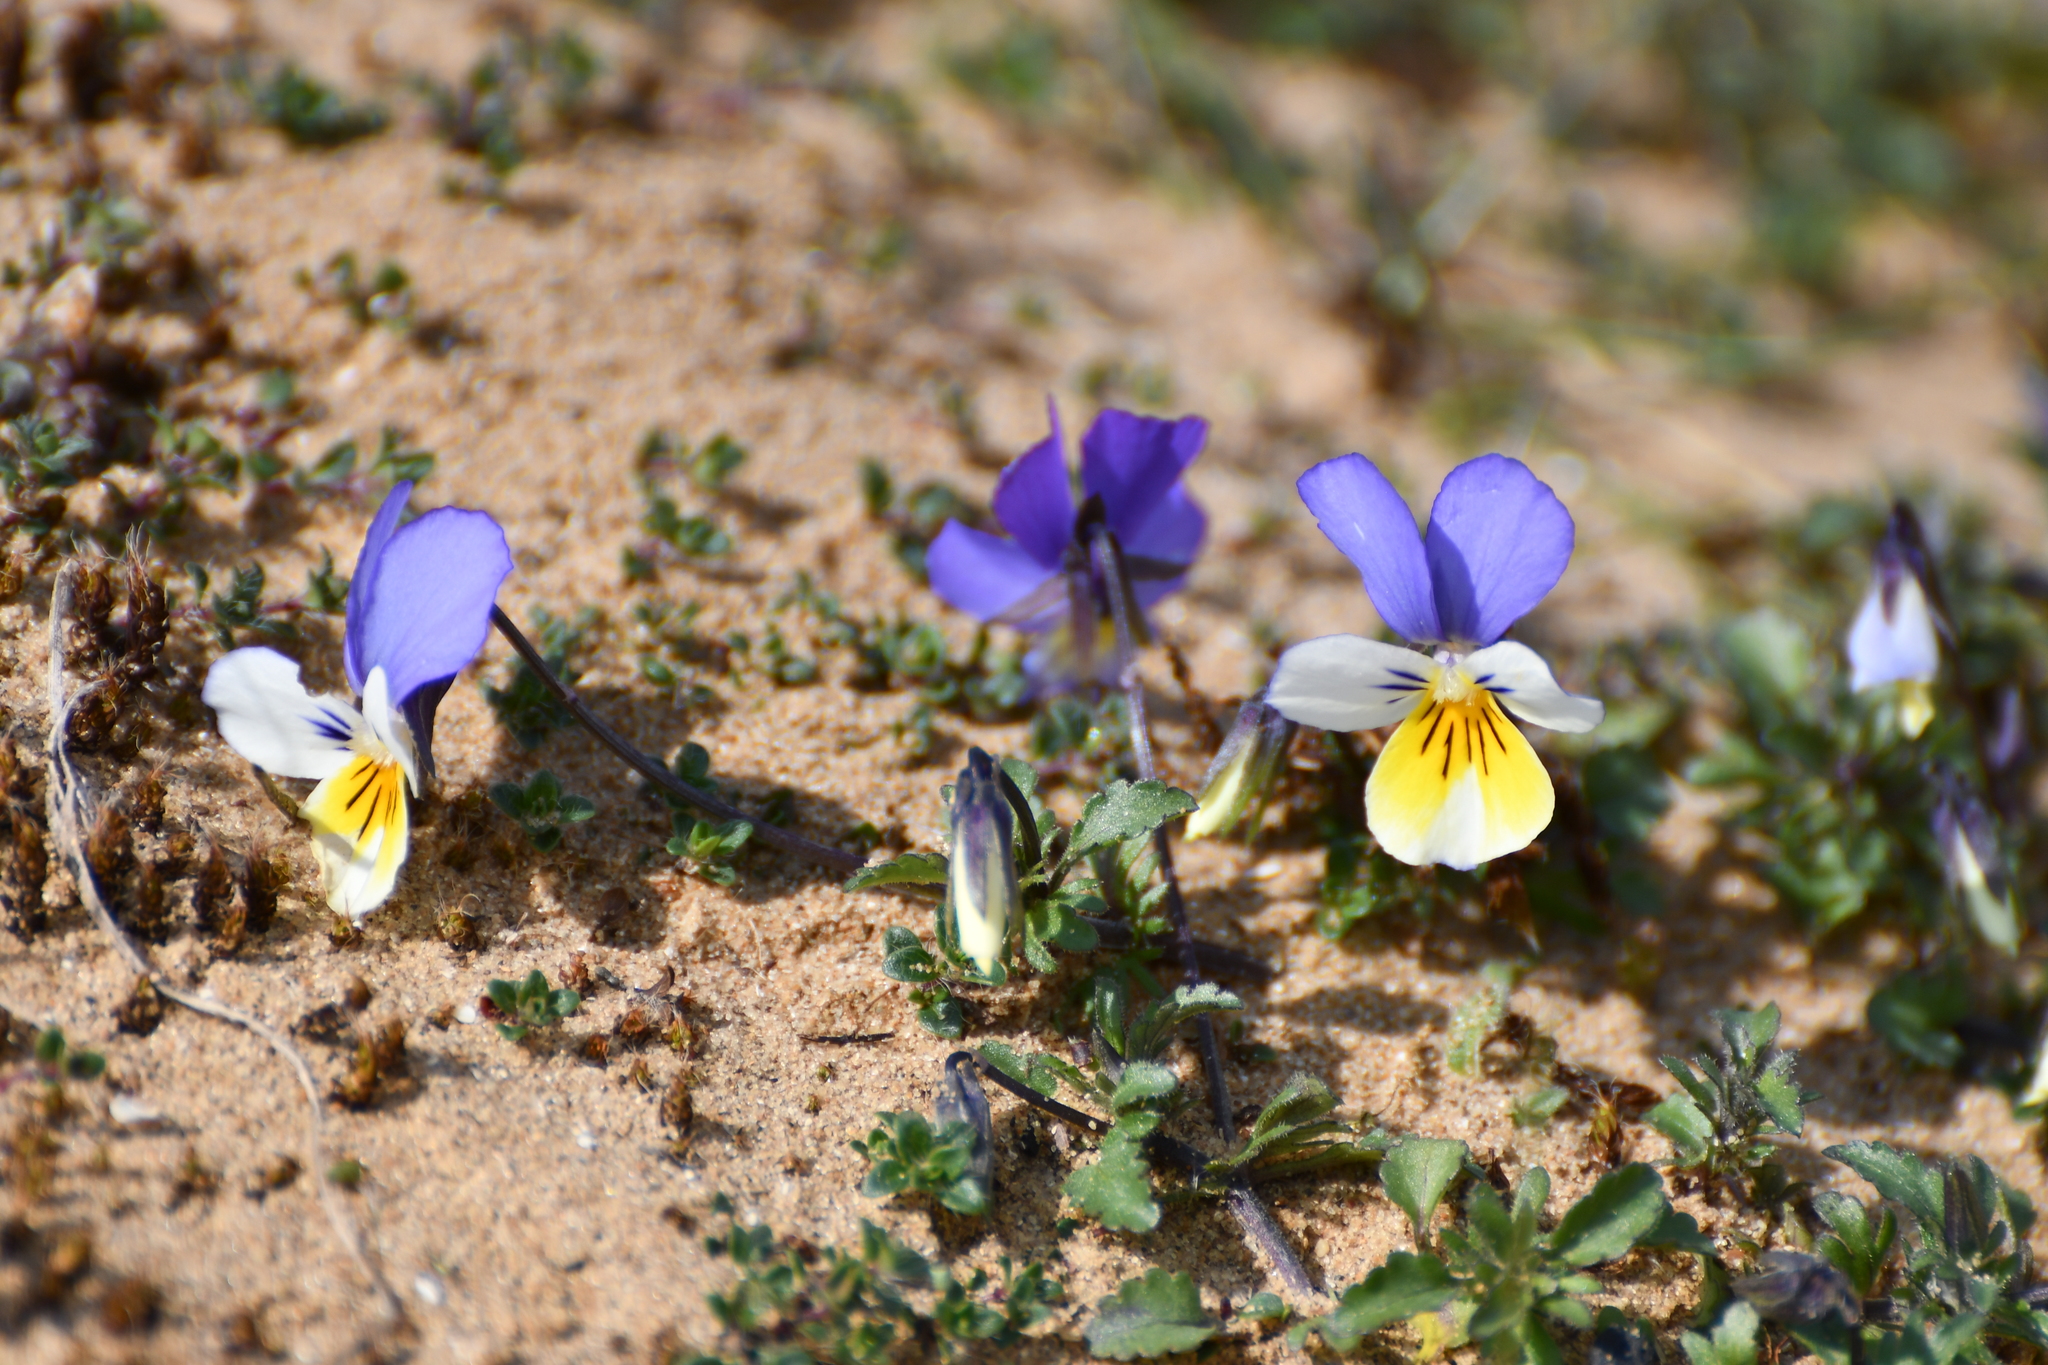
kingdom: Plantae
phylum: Tracheophyta
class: Magnoliopsida
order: Malpighiales
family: Violaceae
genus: Viola
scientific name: Viola tricolor
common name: Pansy
